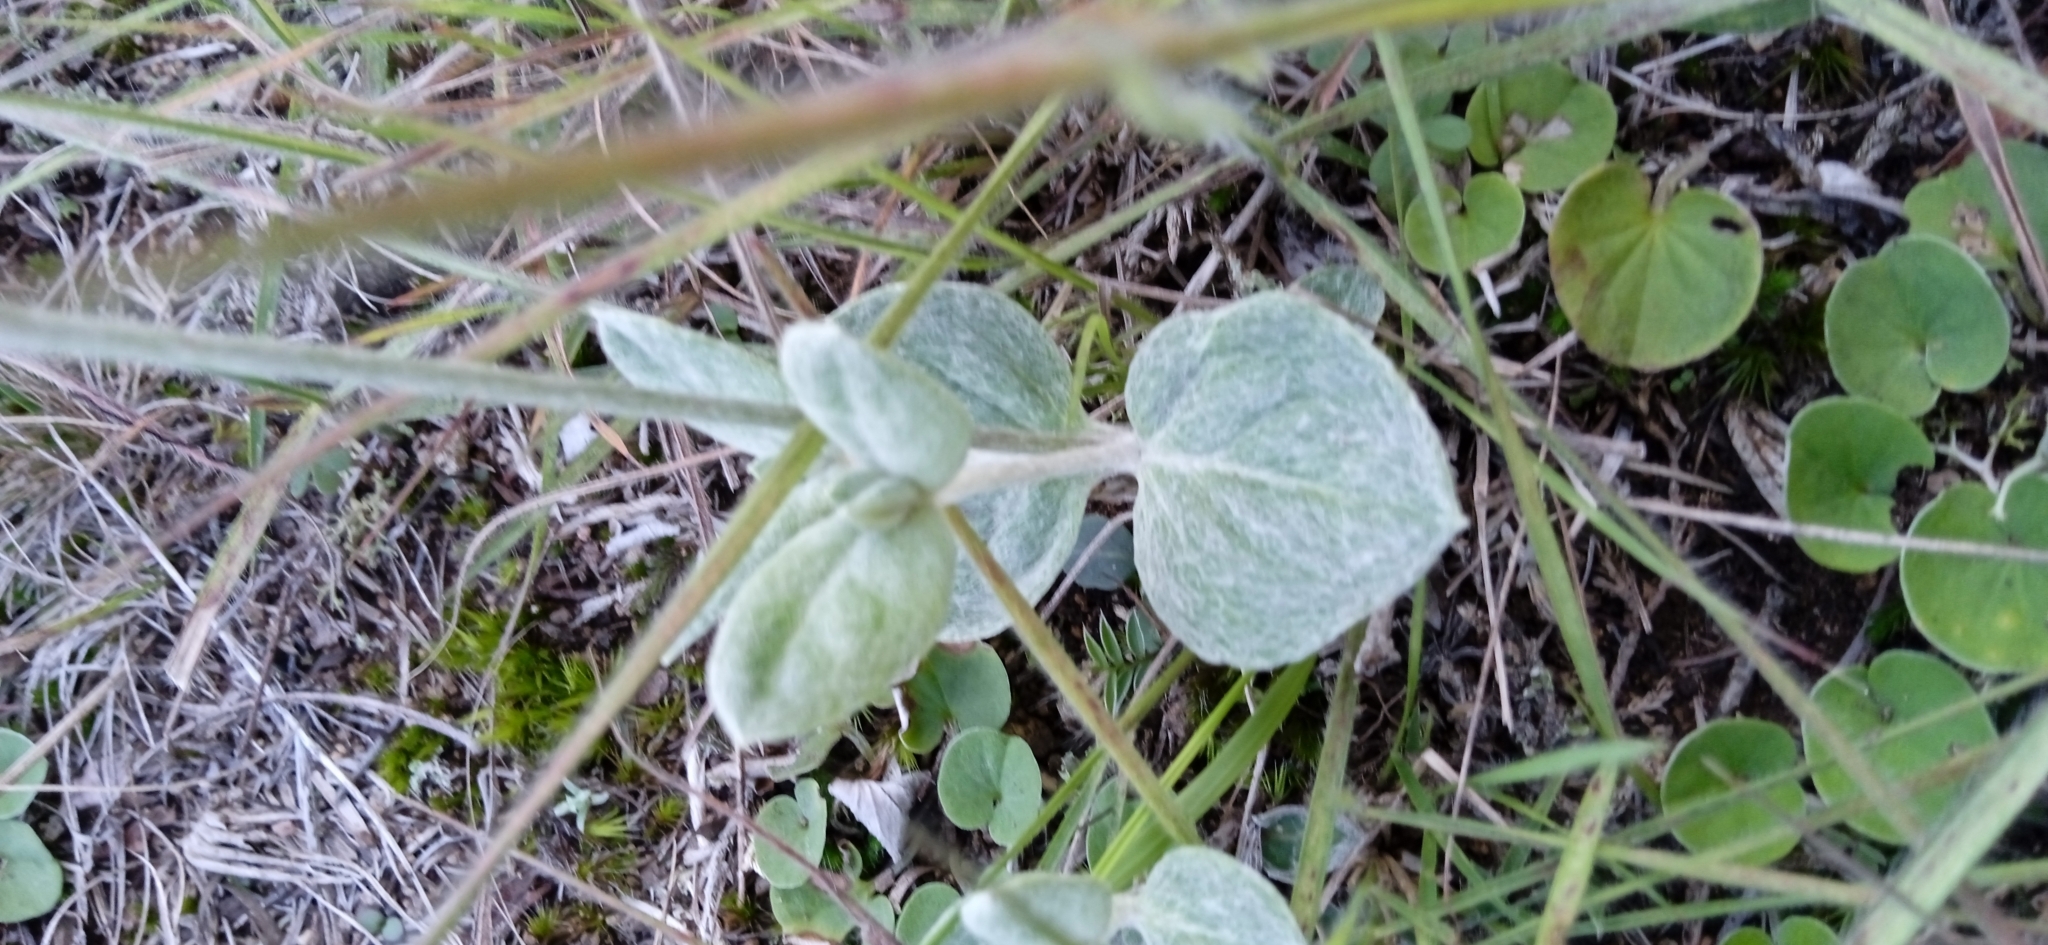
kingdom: Plantae
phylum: Tracheophyta
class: Magnoliopsida
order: Caryophyllales
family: Amaranthaceae
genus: Pfaffia
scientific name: Pfaffia gnaphalioides
